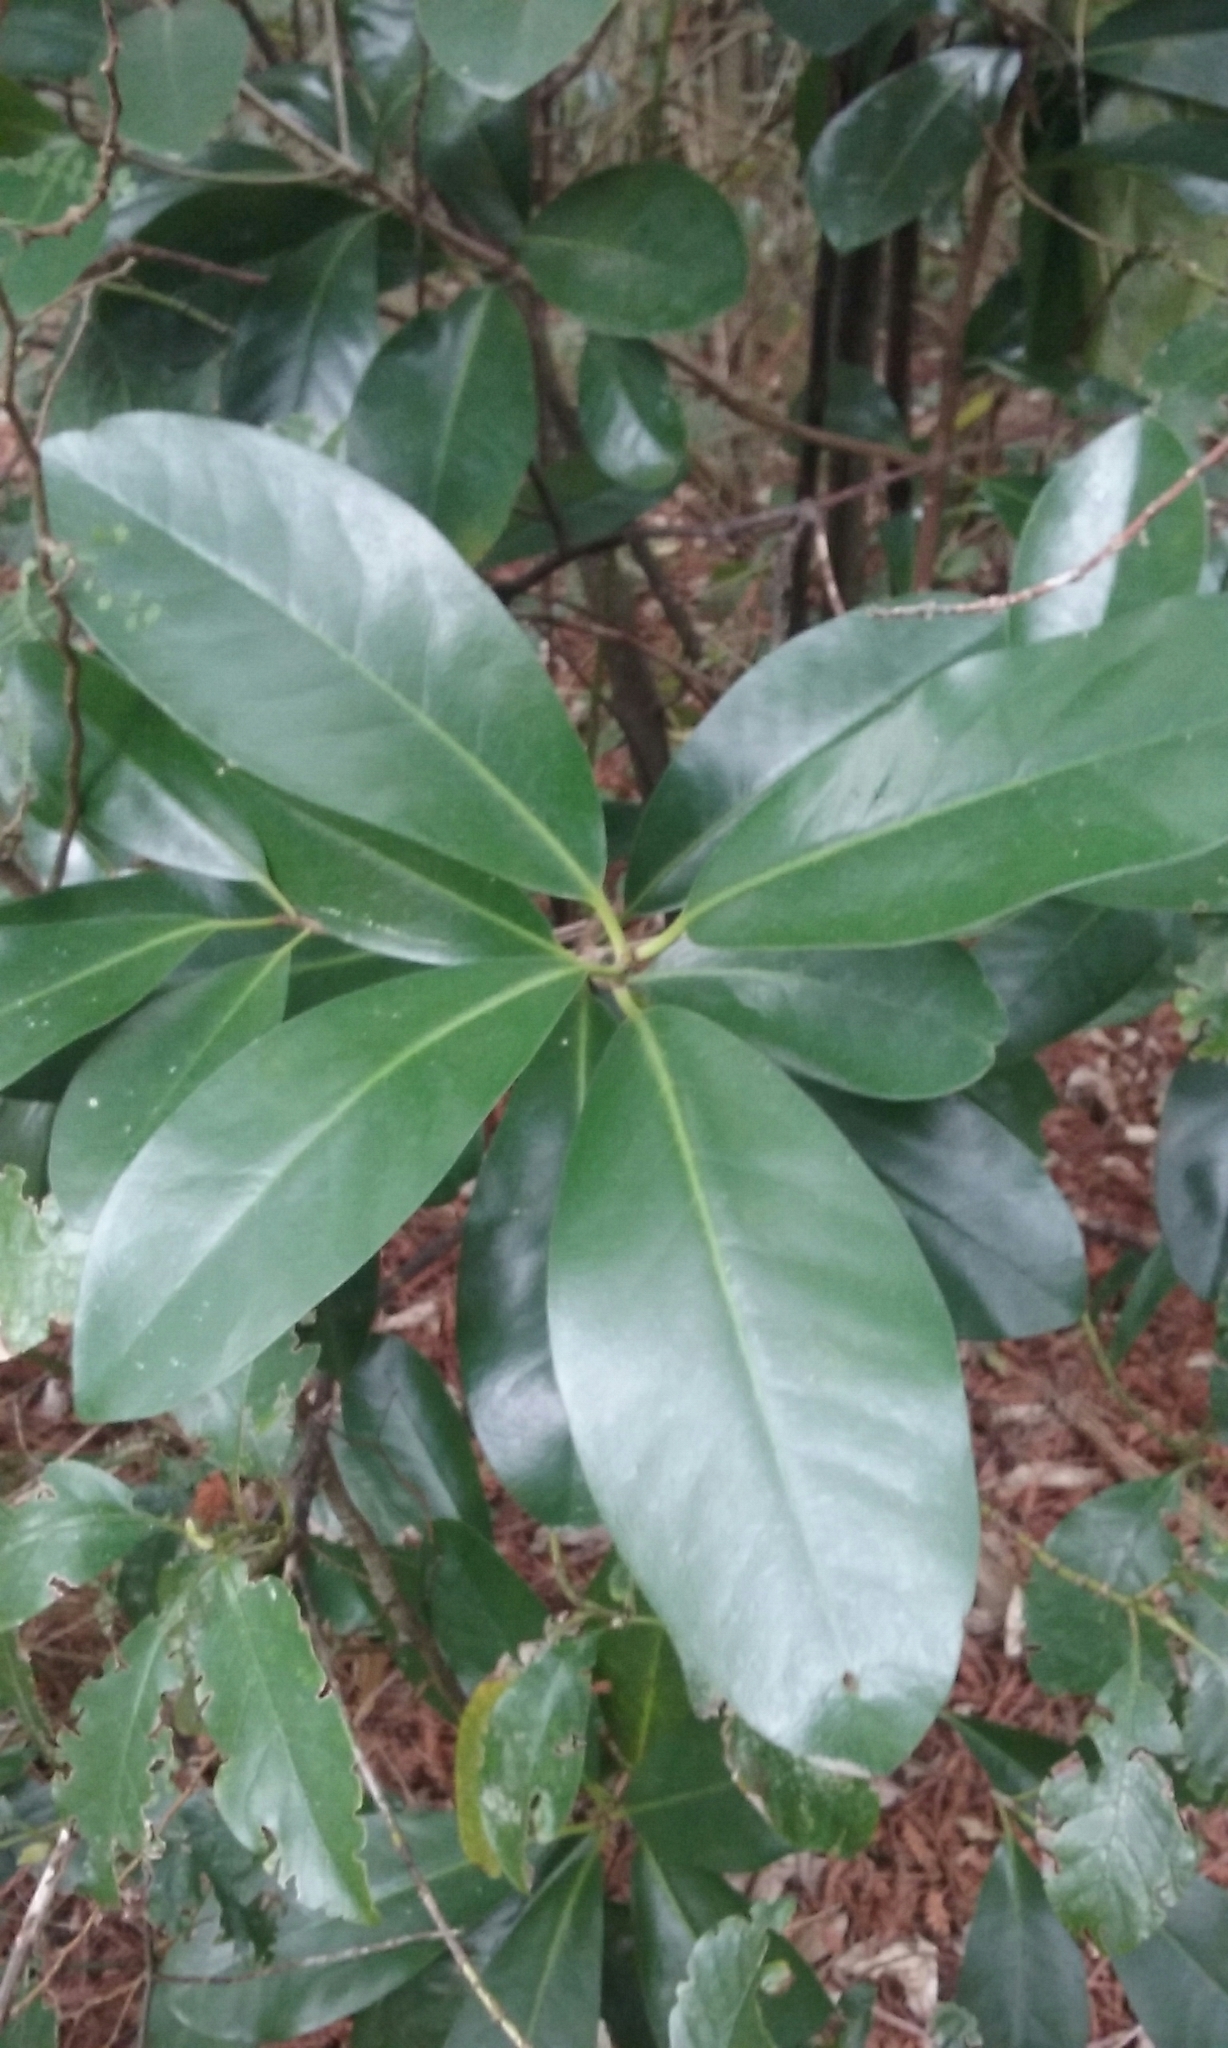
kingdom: Plantae
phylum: Tracheophyta
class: Magnoliopsida
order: Cucurbitales
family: Corynocarpaceae
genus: Corynocarpus
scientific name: Corynocarpus laevigatus
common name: New zealand laurel
